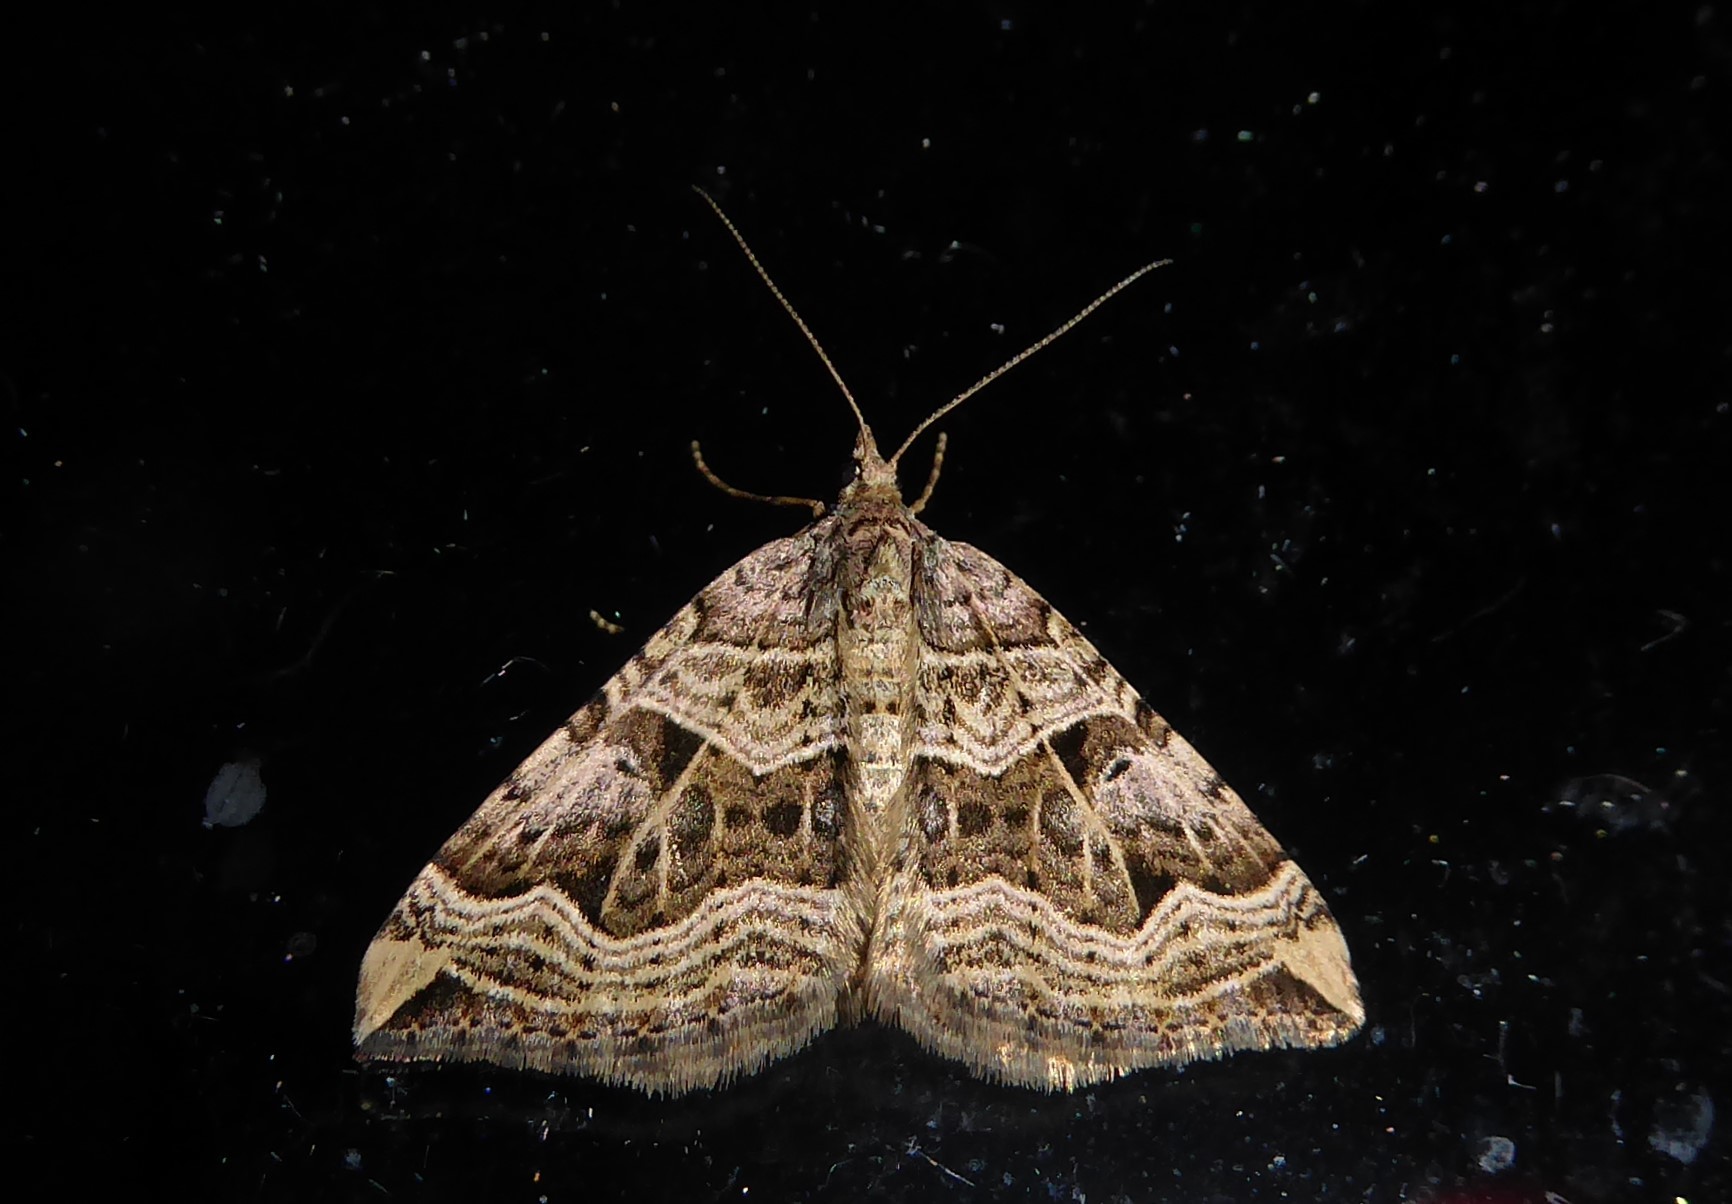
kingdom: Animalia
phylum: Arthropoda
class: Insecta
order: Lepidoptera
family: Geometridae
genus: Xanthorhoe
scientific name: Xanthorhoe semifissata
